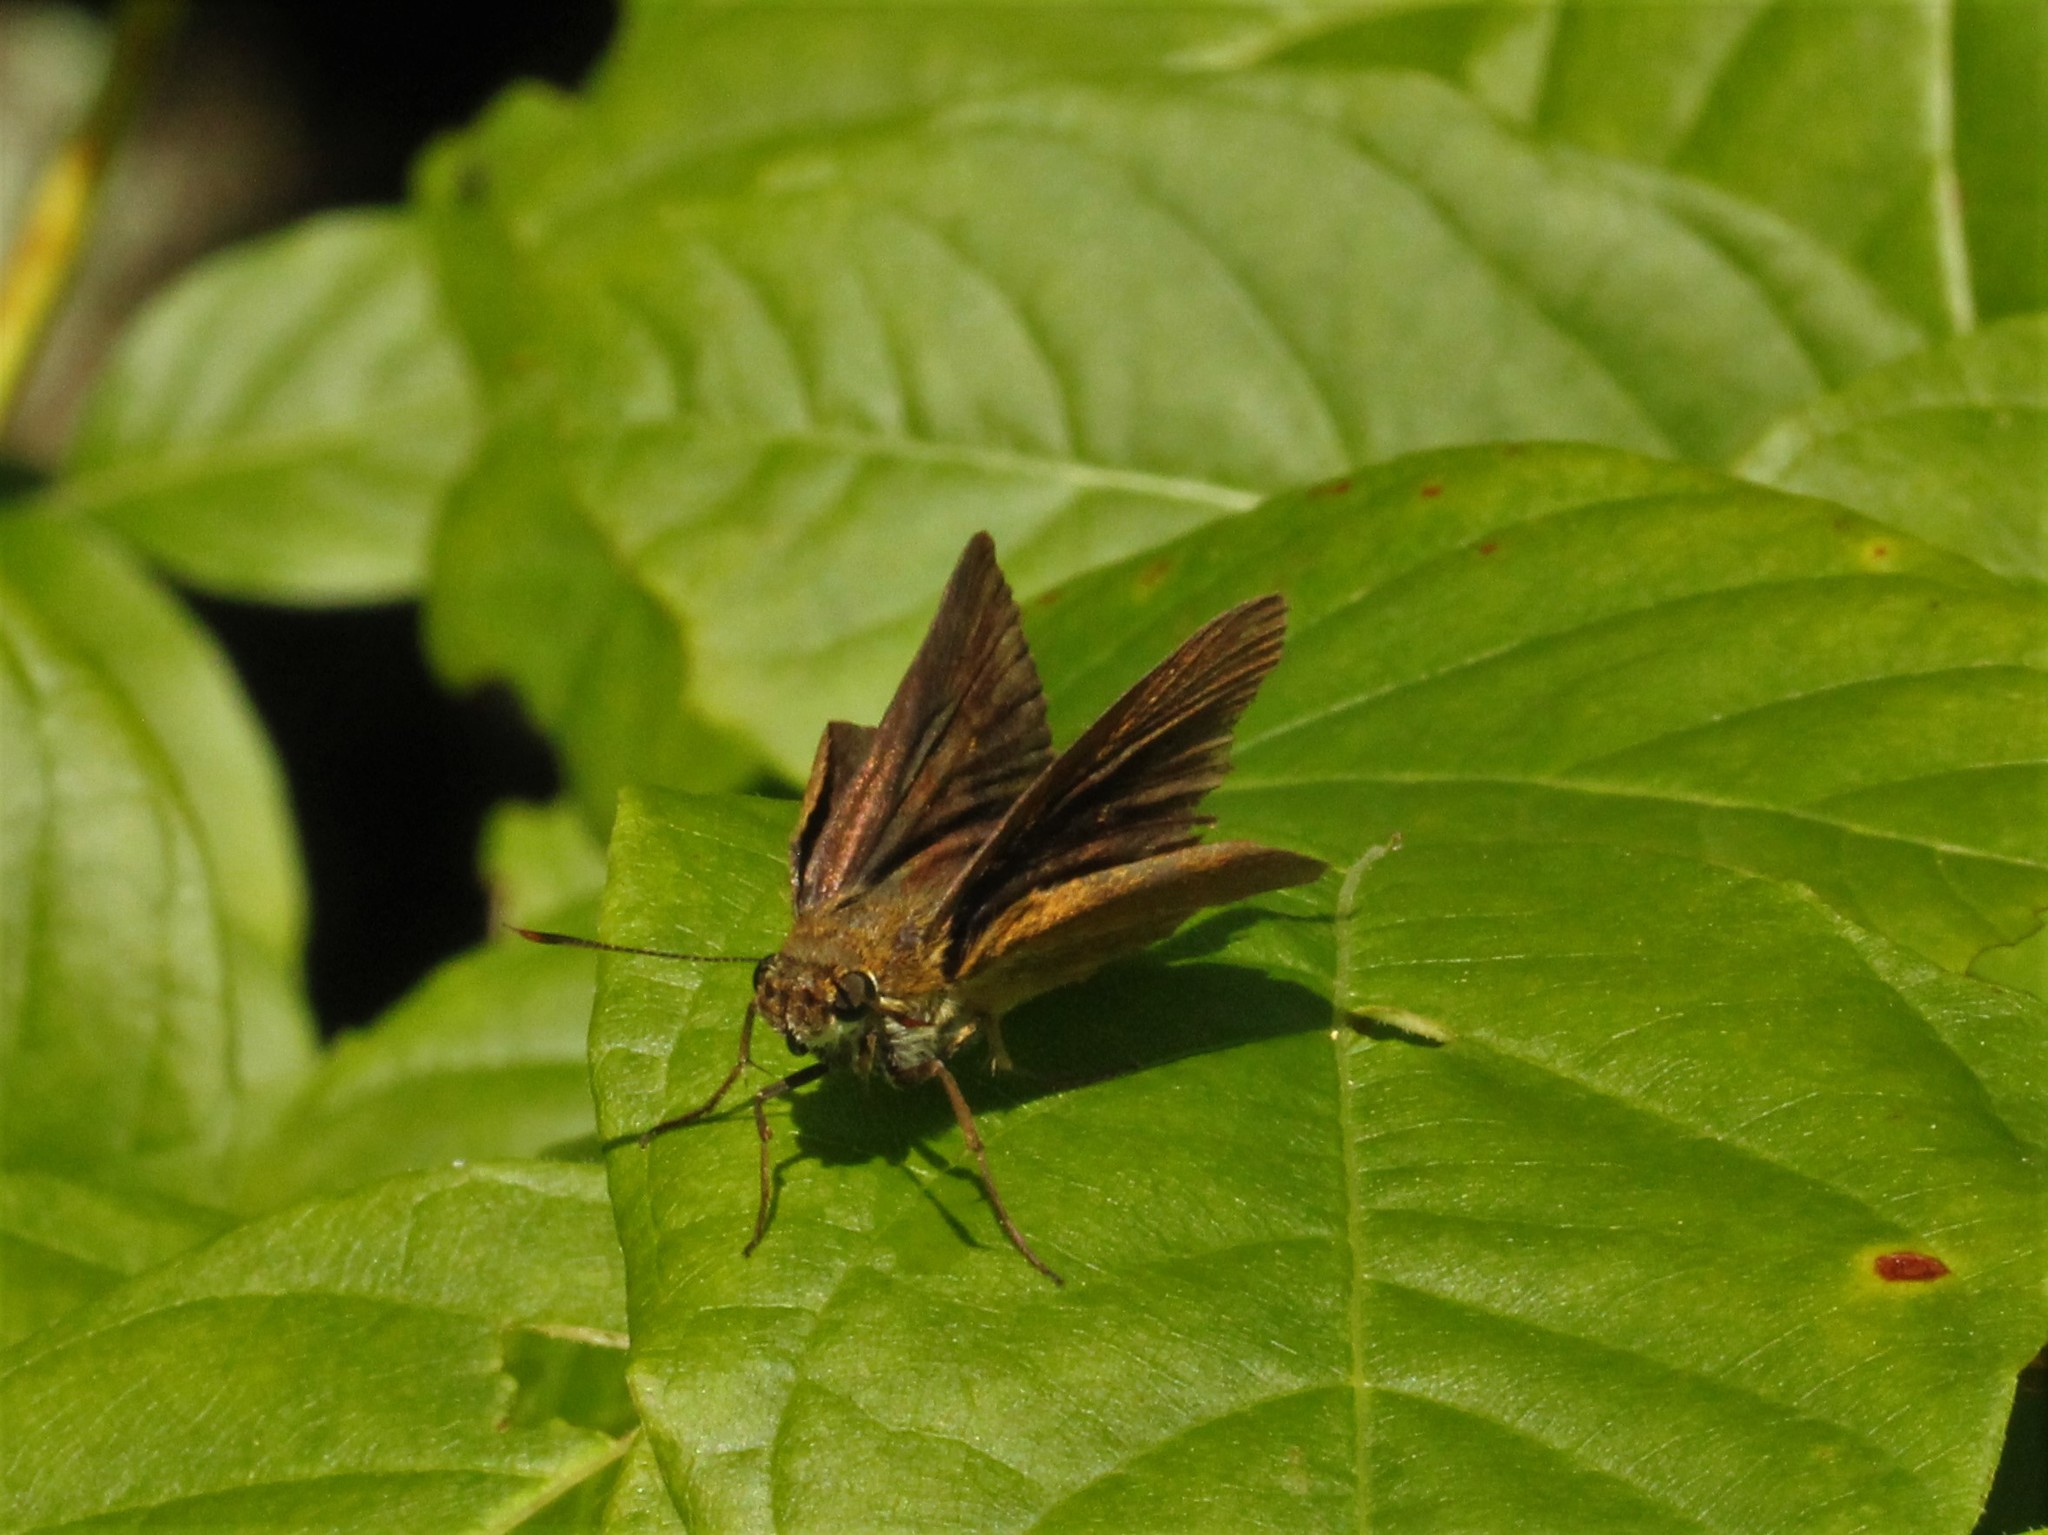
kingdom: Animalia
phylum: Arthropoda
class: Insecta
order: Lepidoptera
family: Hesperiidae
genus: Euphyes
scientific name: Euphyes dukesi
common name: Dukes' skipper
